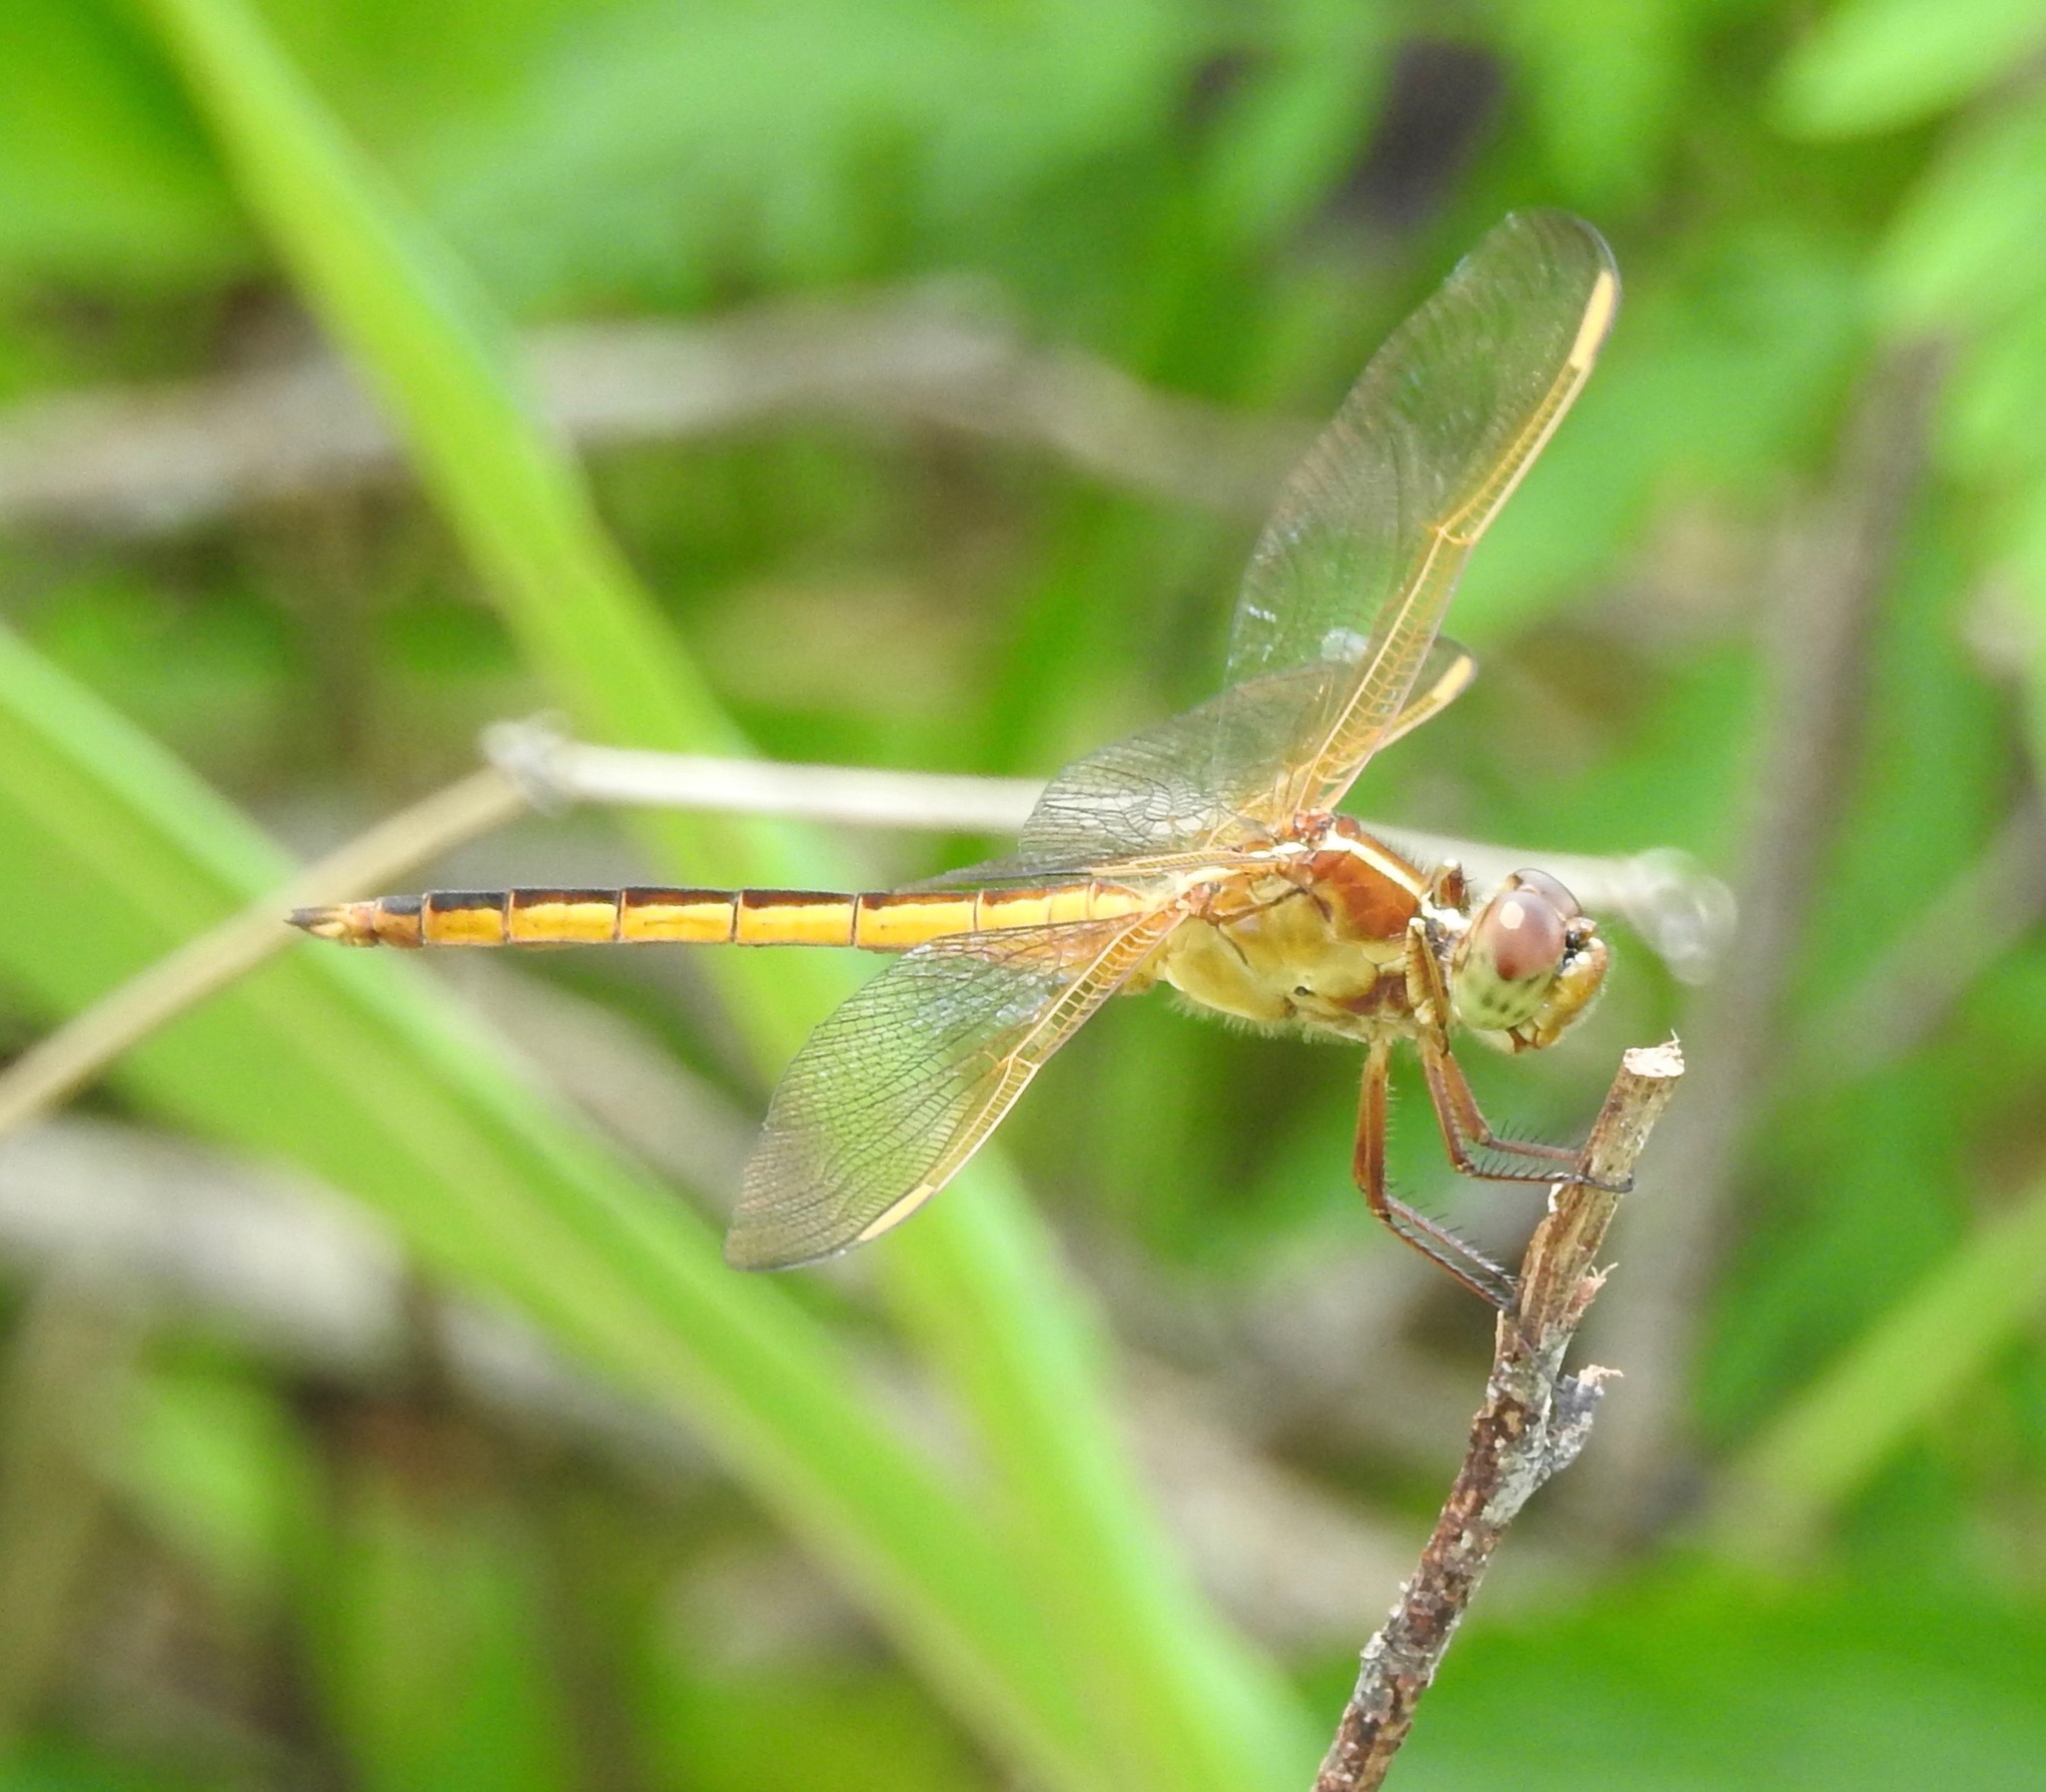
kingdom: Animalia
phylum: Arthropoda
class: Insecta
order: Odonata
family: Libellulidae
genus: Libellula
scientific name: Libellula needhami
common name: Needham's skimmer
